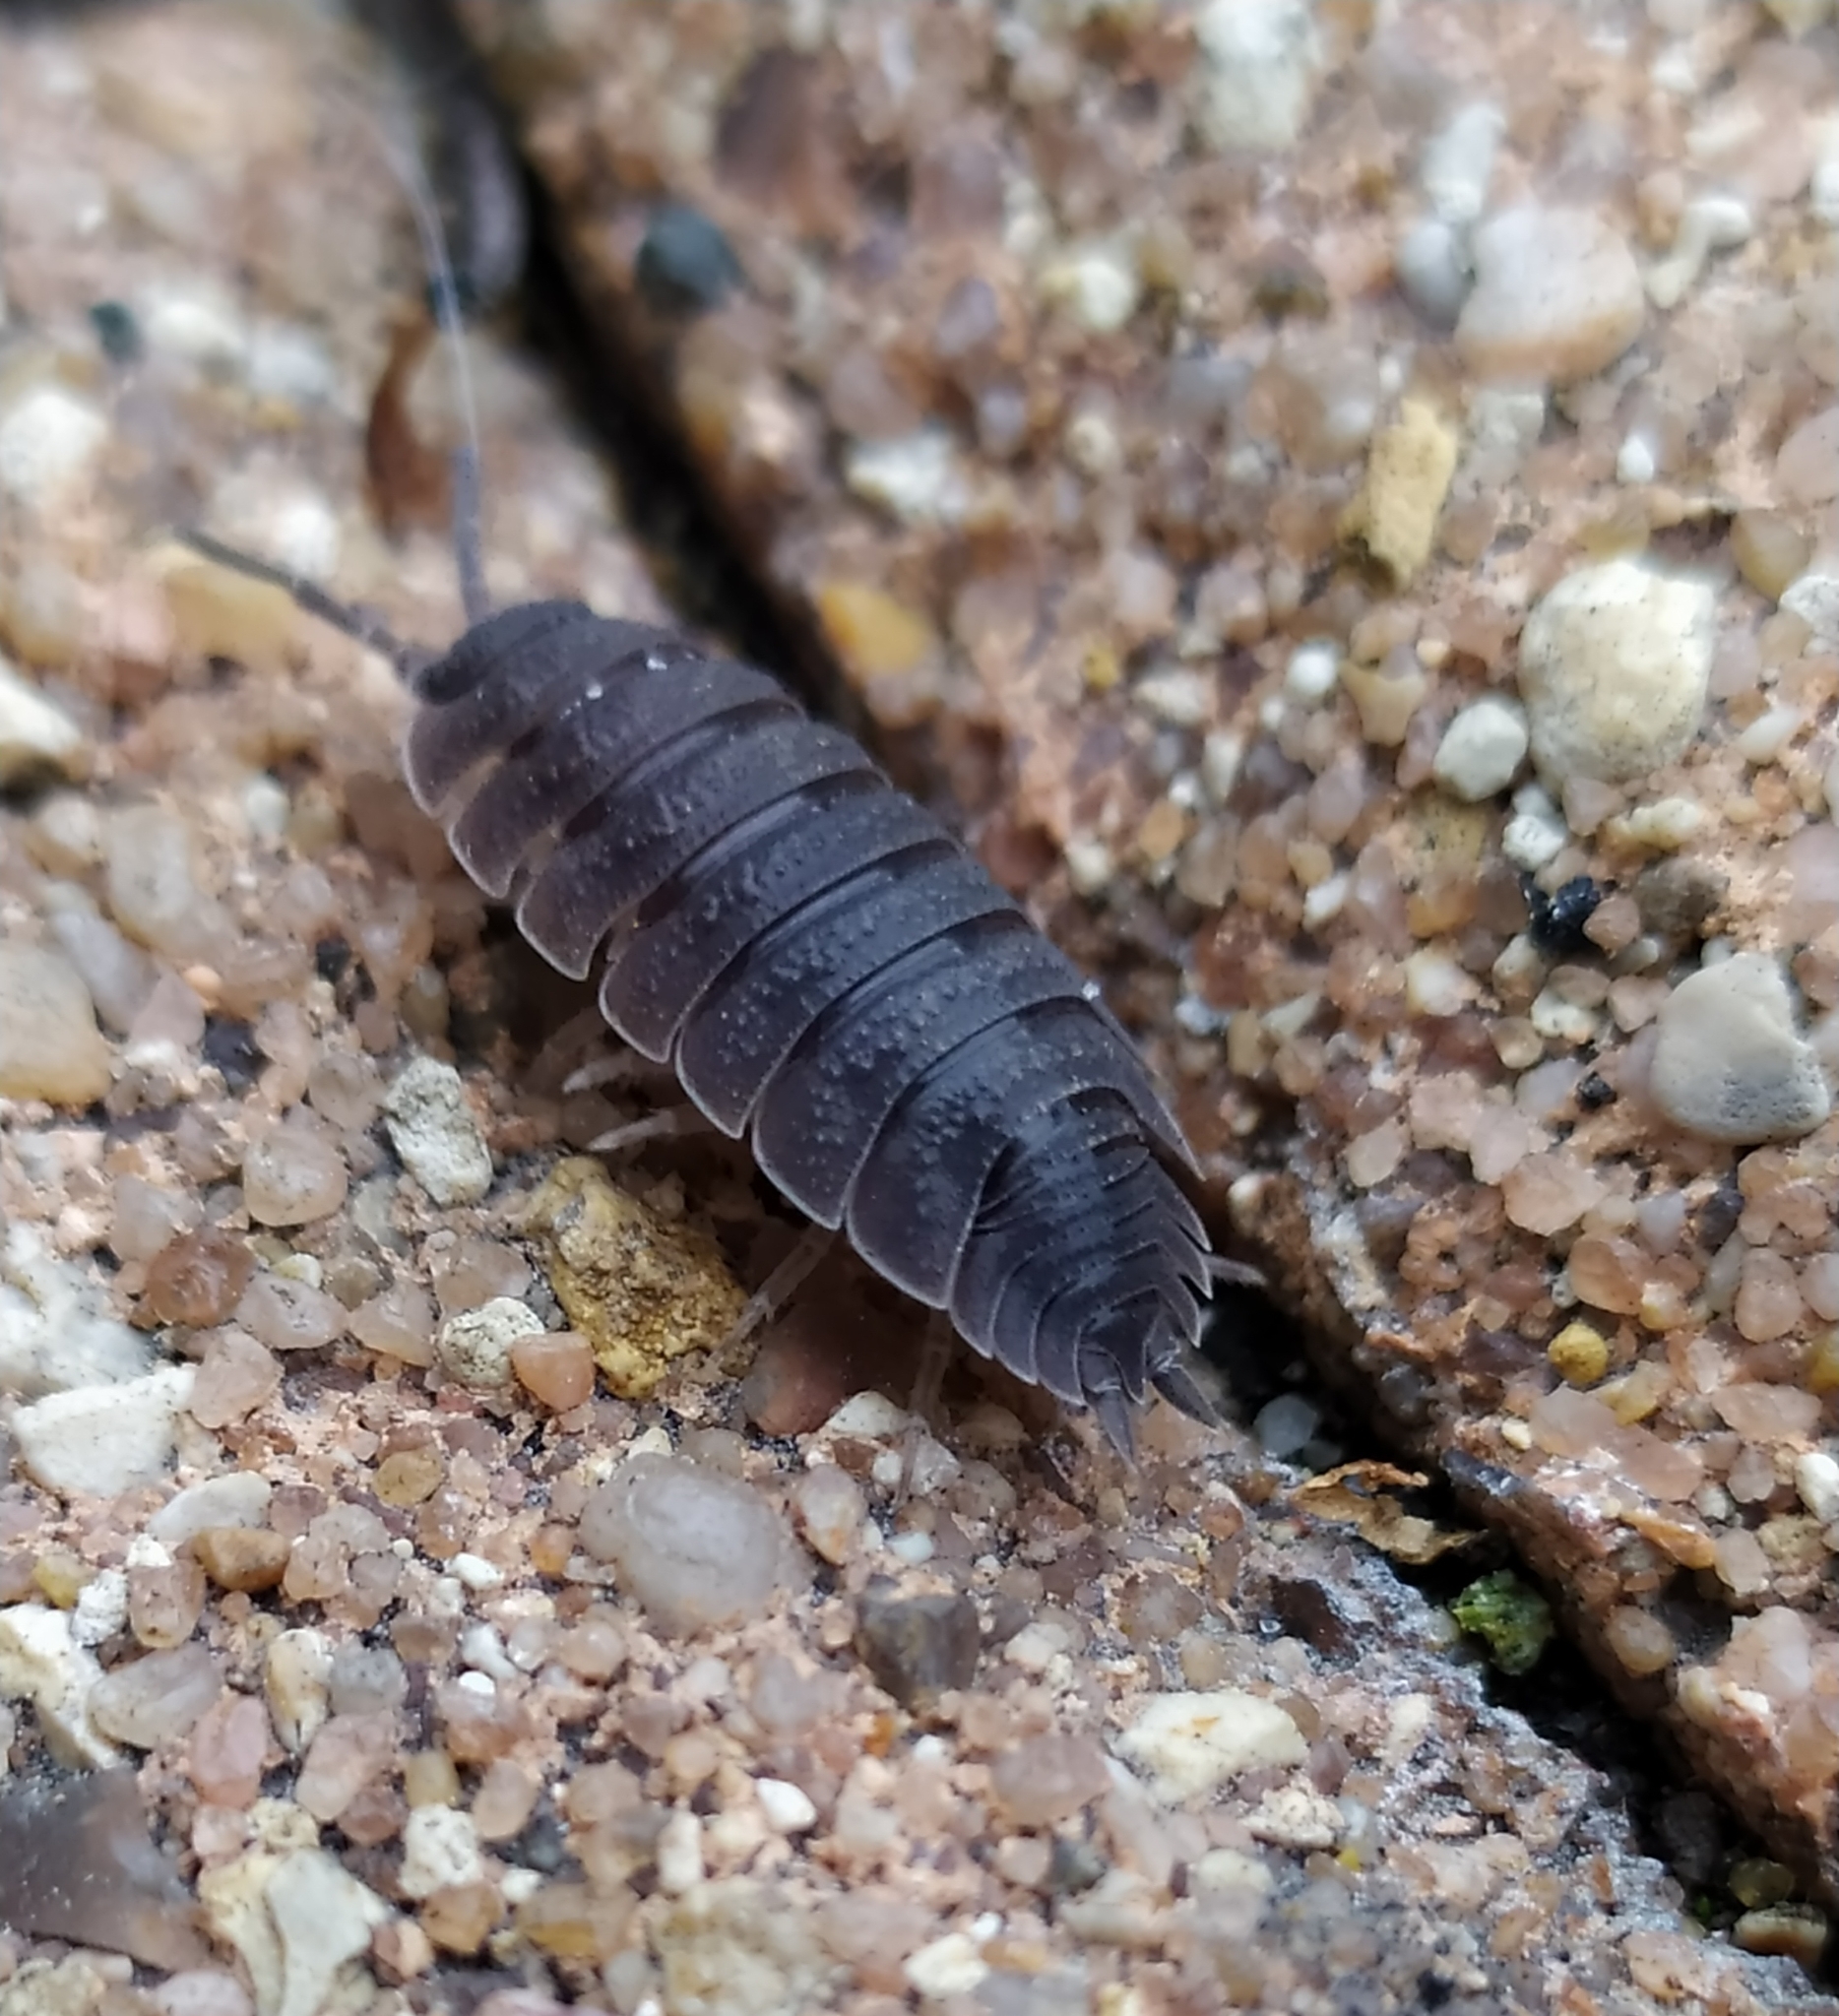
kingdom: Animalia
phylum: Arthropoda
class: Malacostraca
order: Isopoda
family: Porcellionidae
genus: Porcellio
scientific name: Porcellio scaber
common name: Common rough woodlouse
